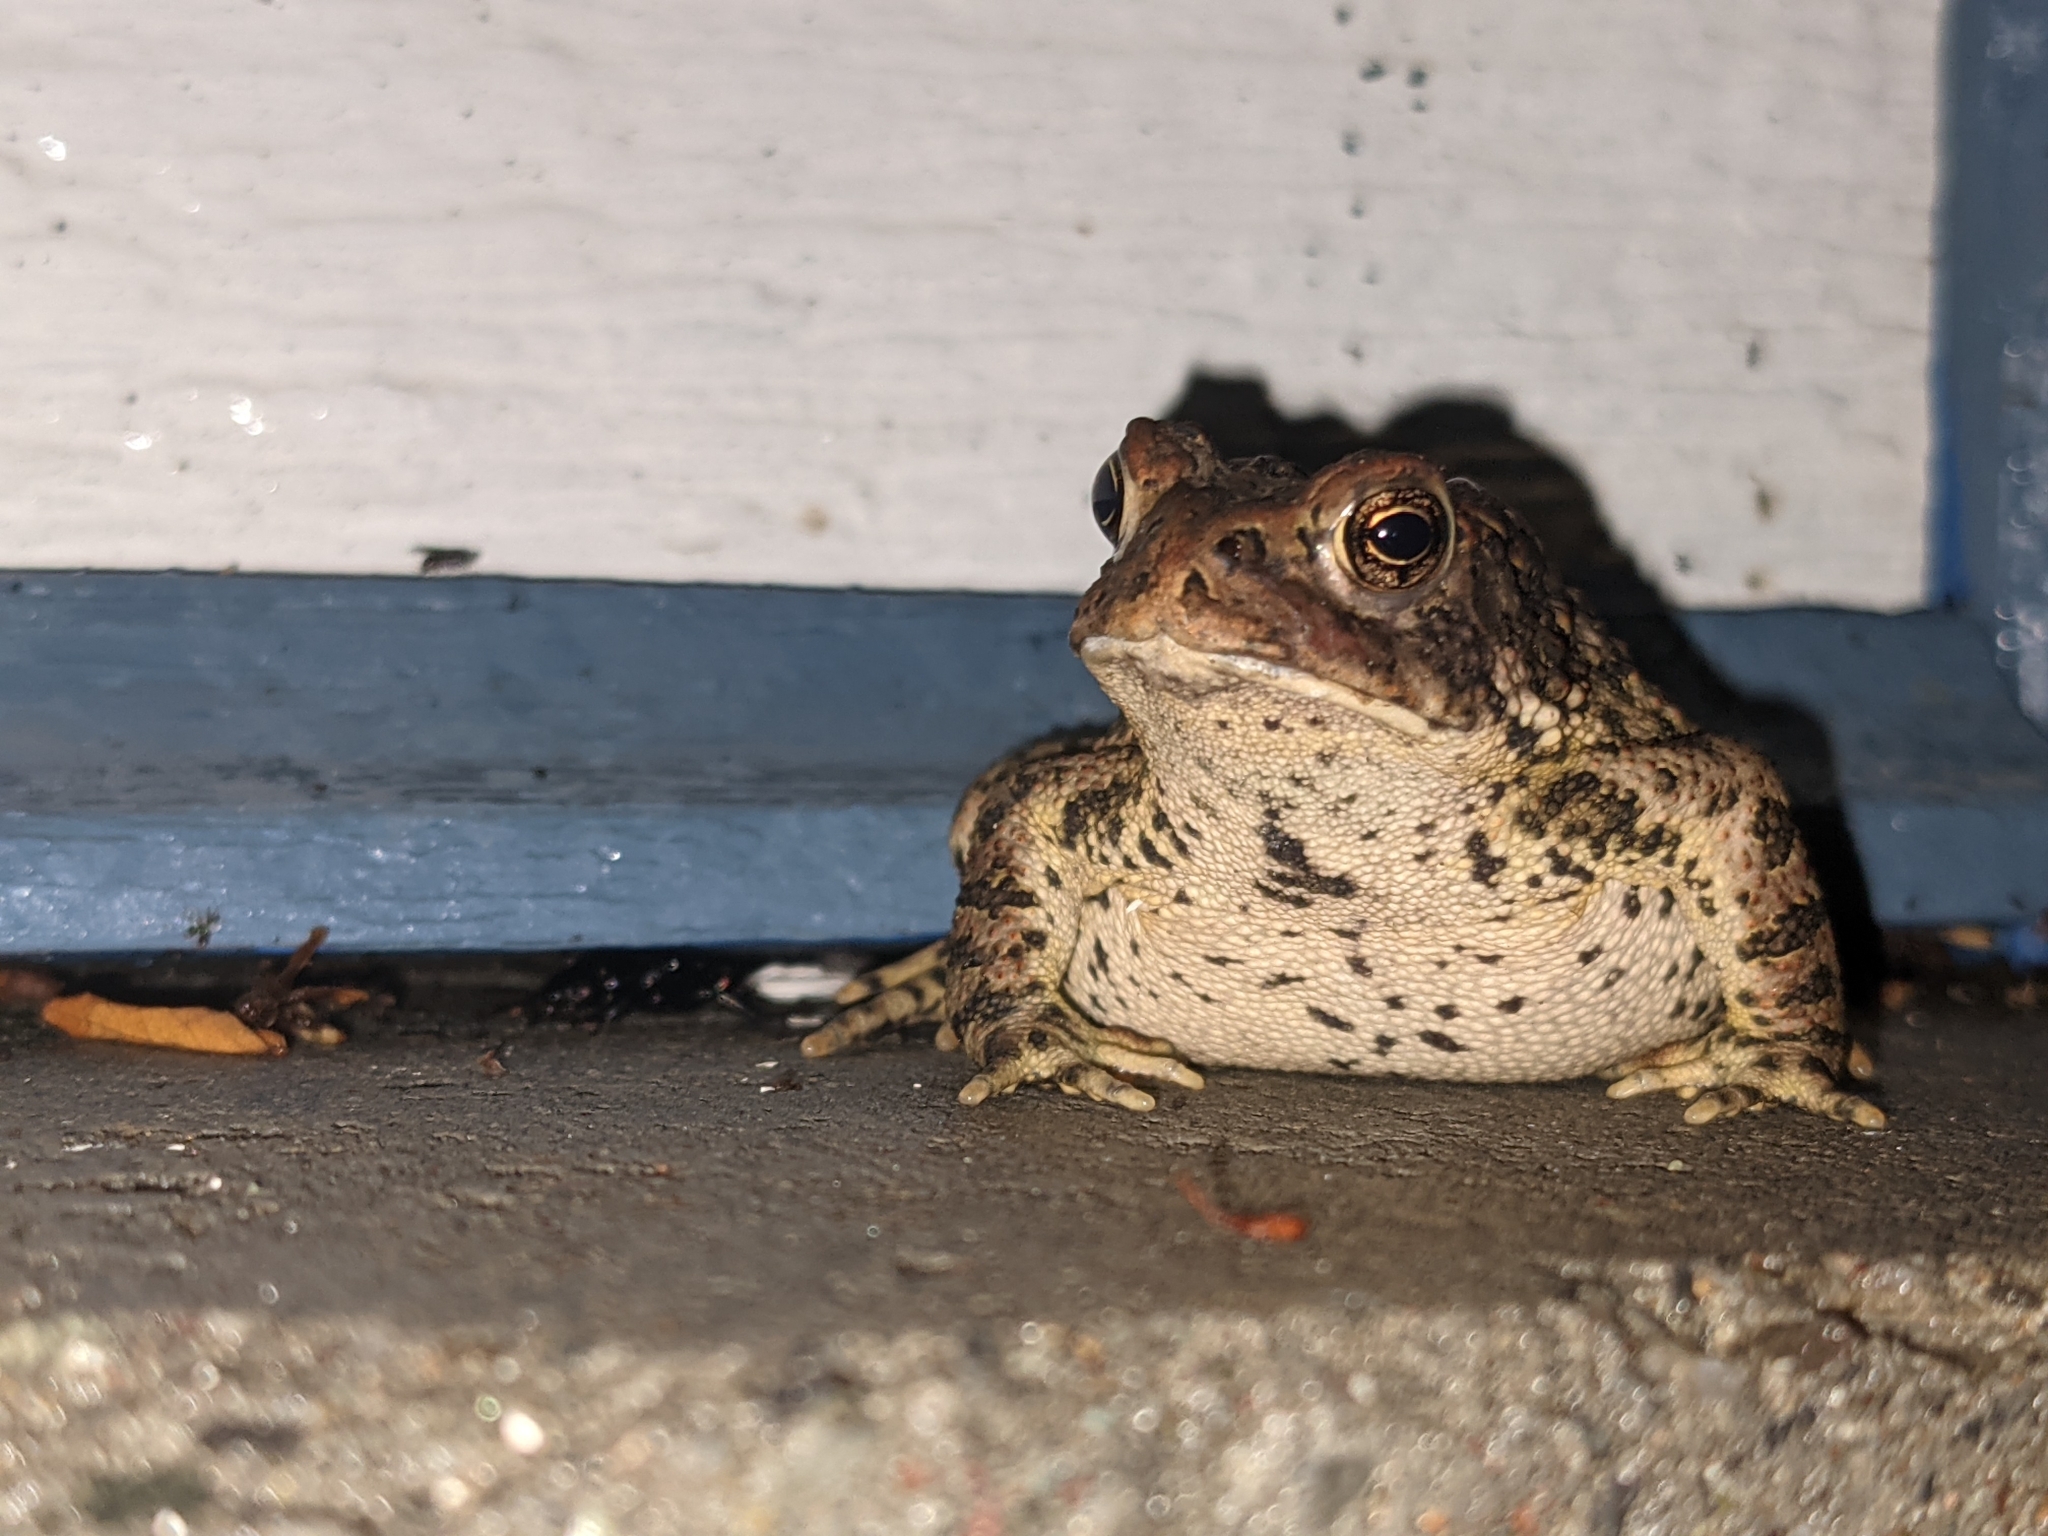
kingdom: Animalia
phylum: Chordata
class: Amphibia
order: Anura
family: Bufonidae
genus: Anaxyrus
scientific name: Anaxyrus americanus
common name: American toad
